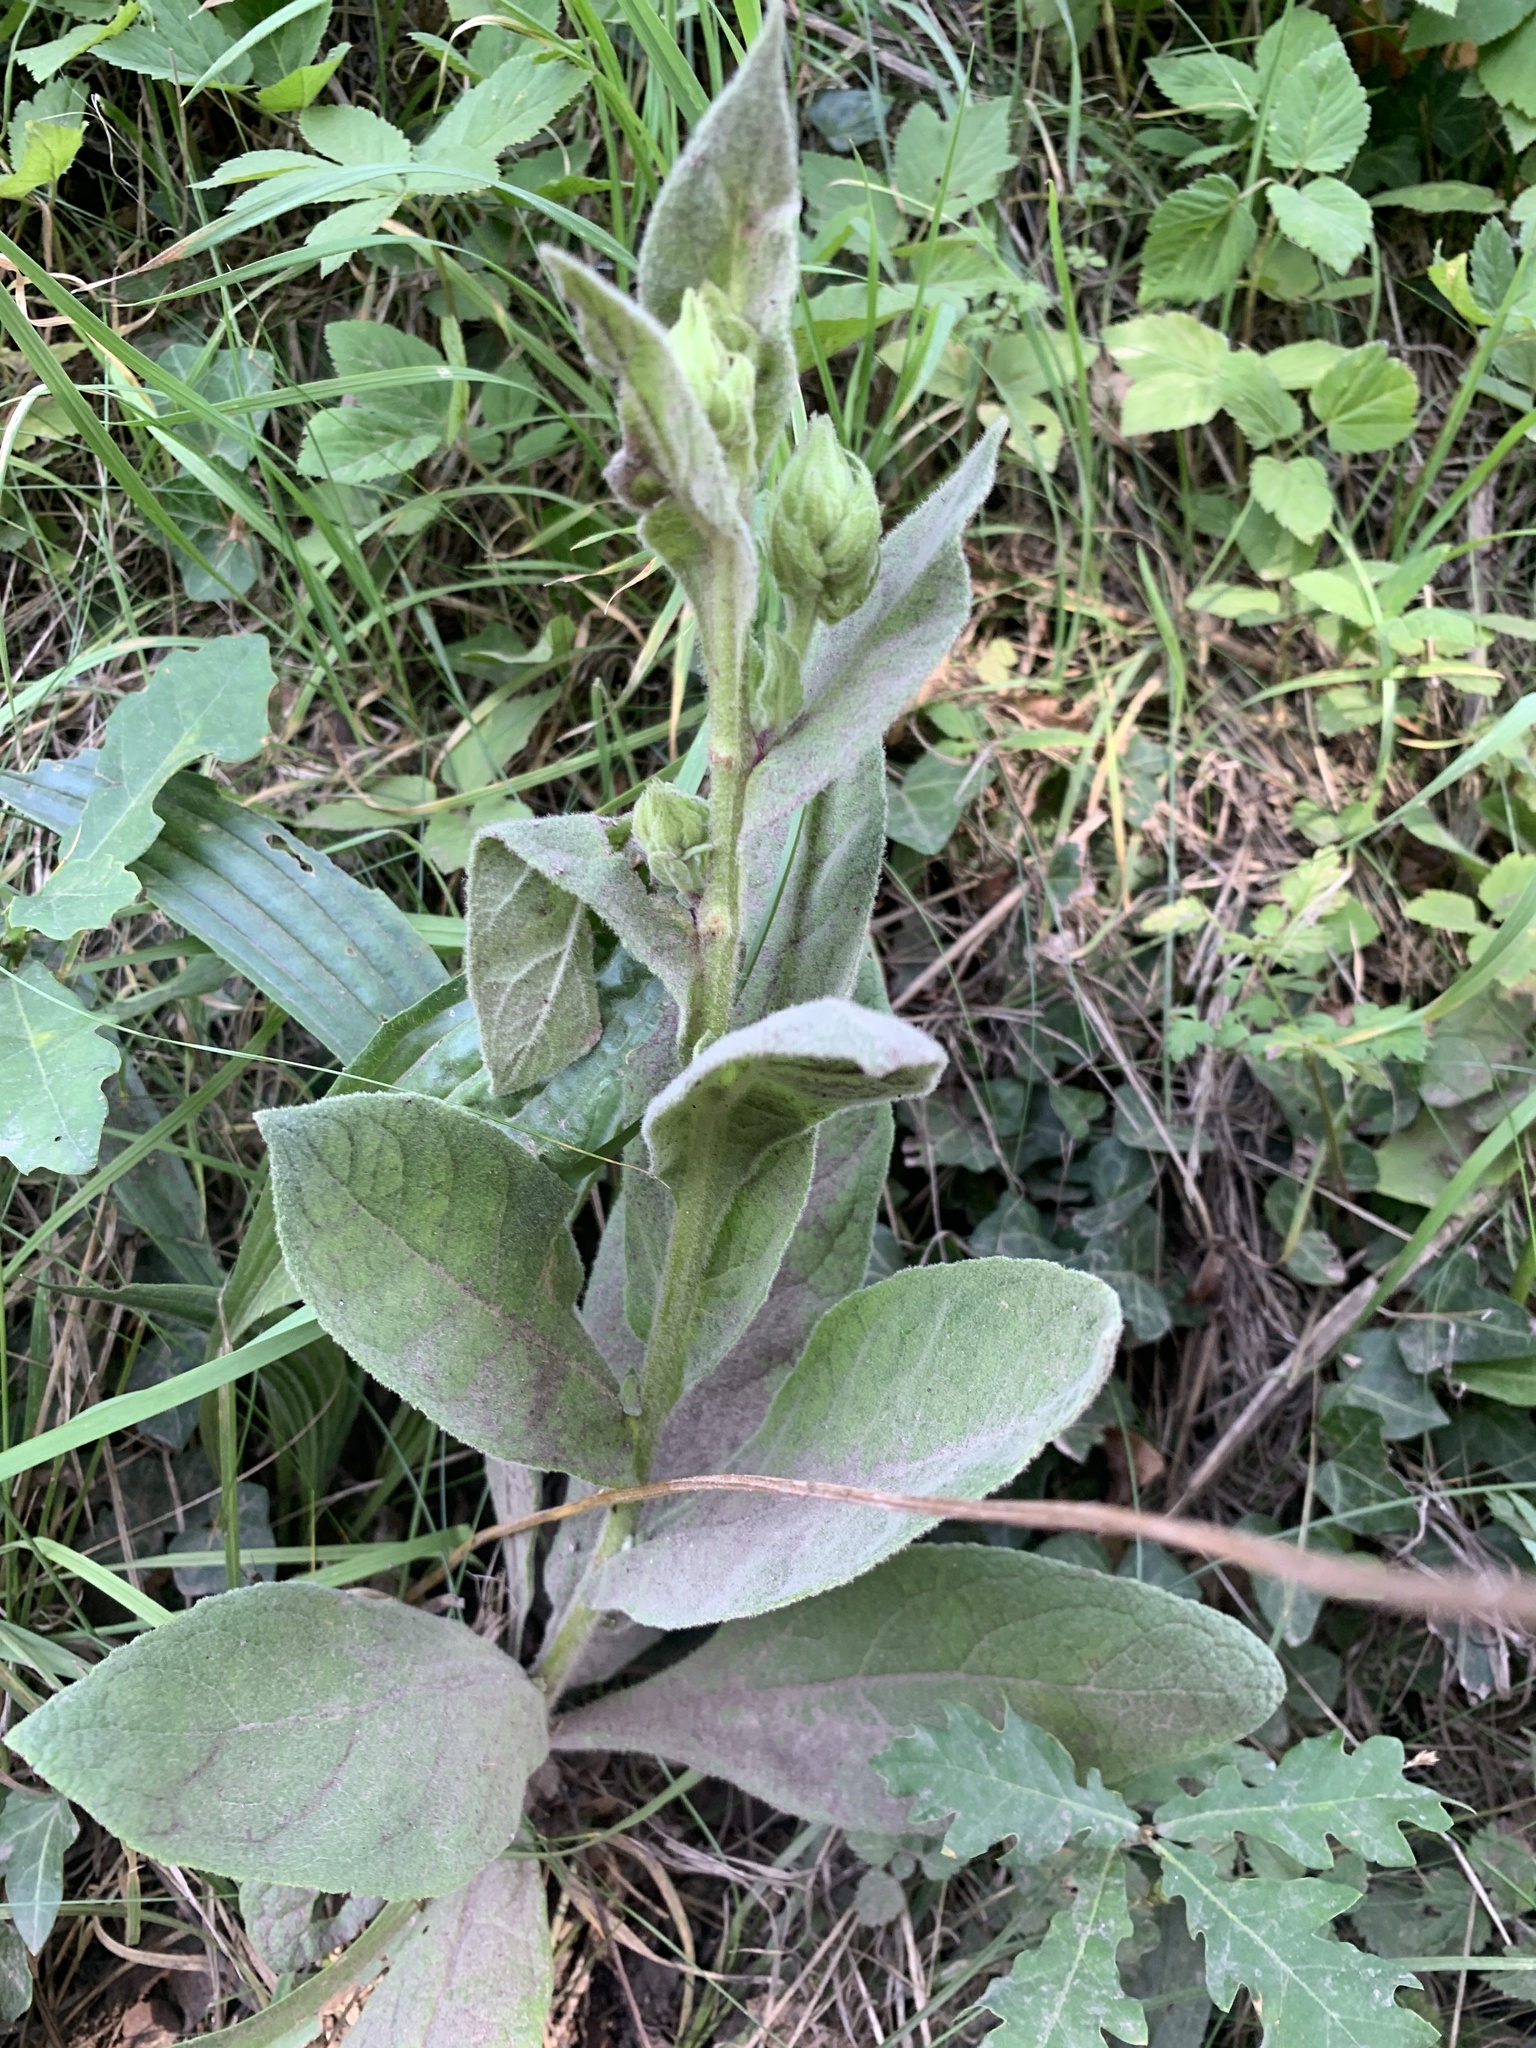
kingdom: Plantae
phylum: Tracheophyta
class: Magnoliopsida
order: Lamiales
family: Scrophulariaceae
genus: Verbascum
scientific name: Verbascum thapsus
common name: Common mullein
